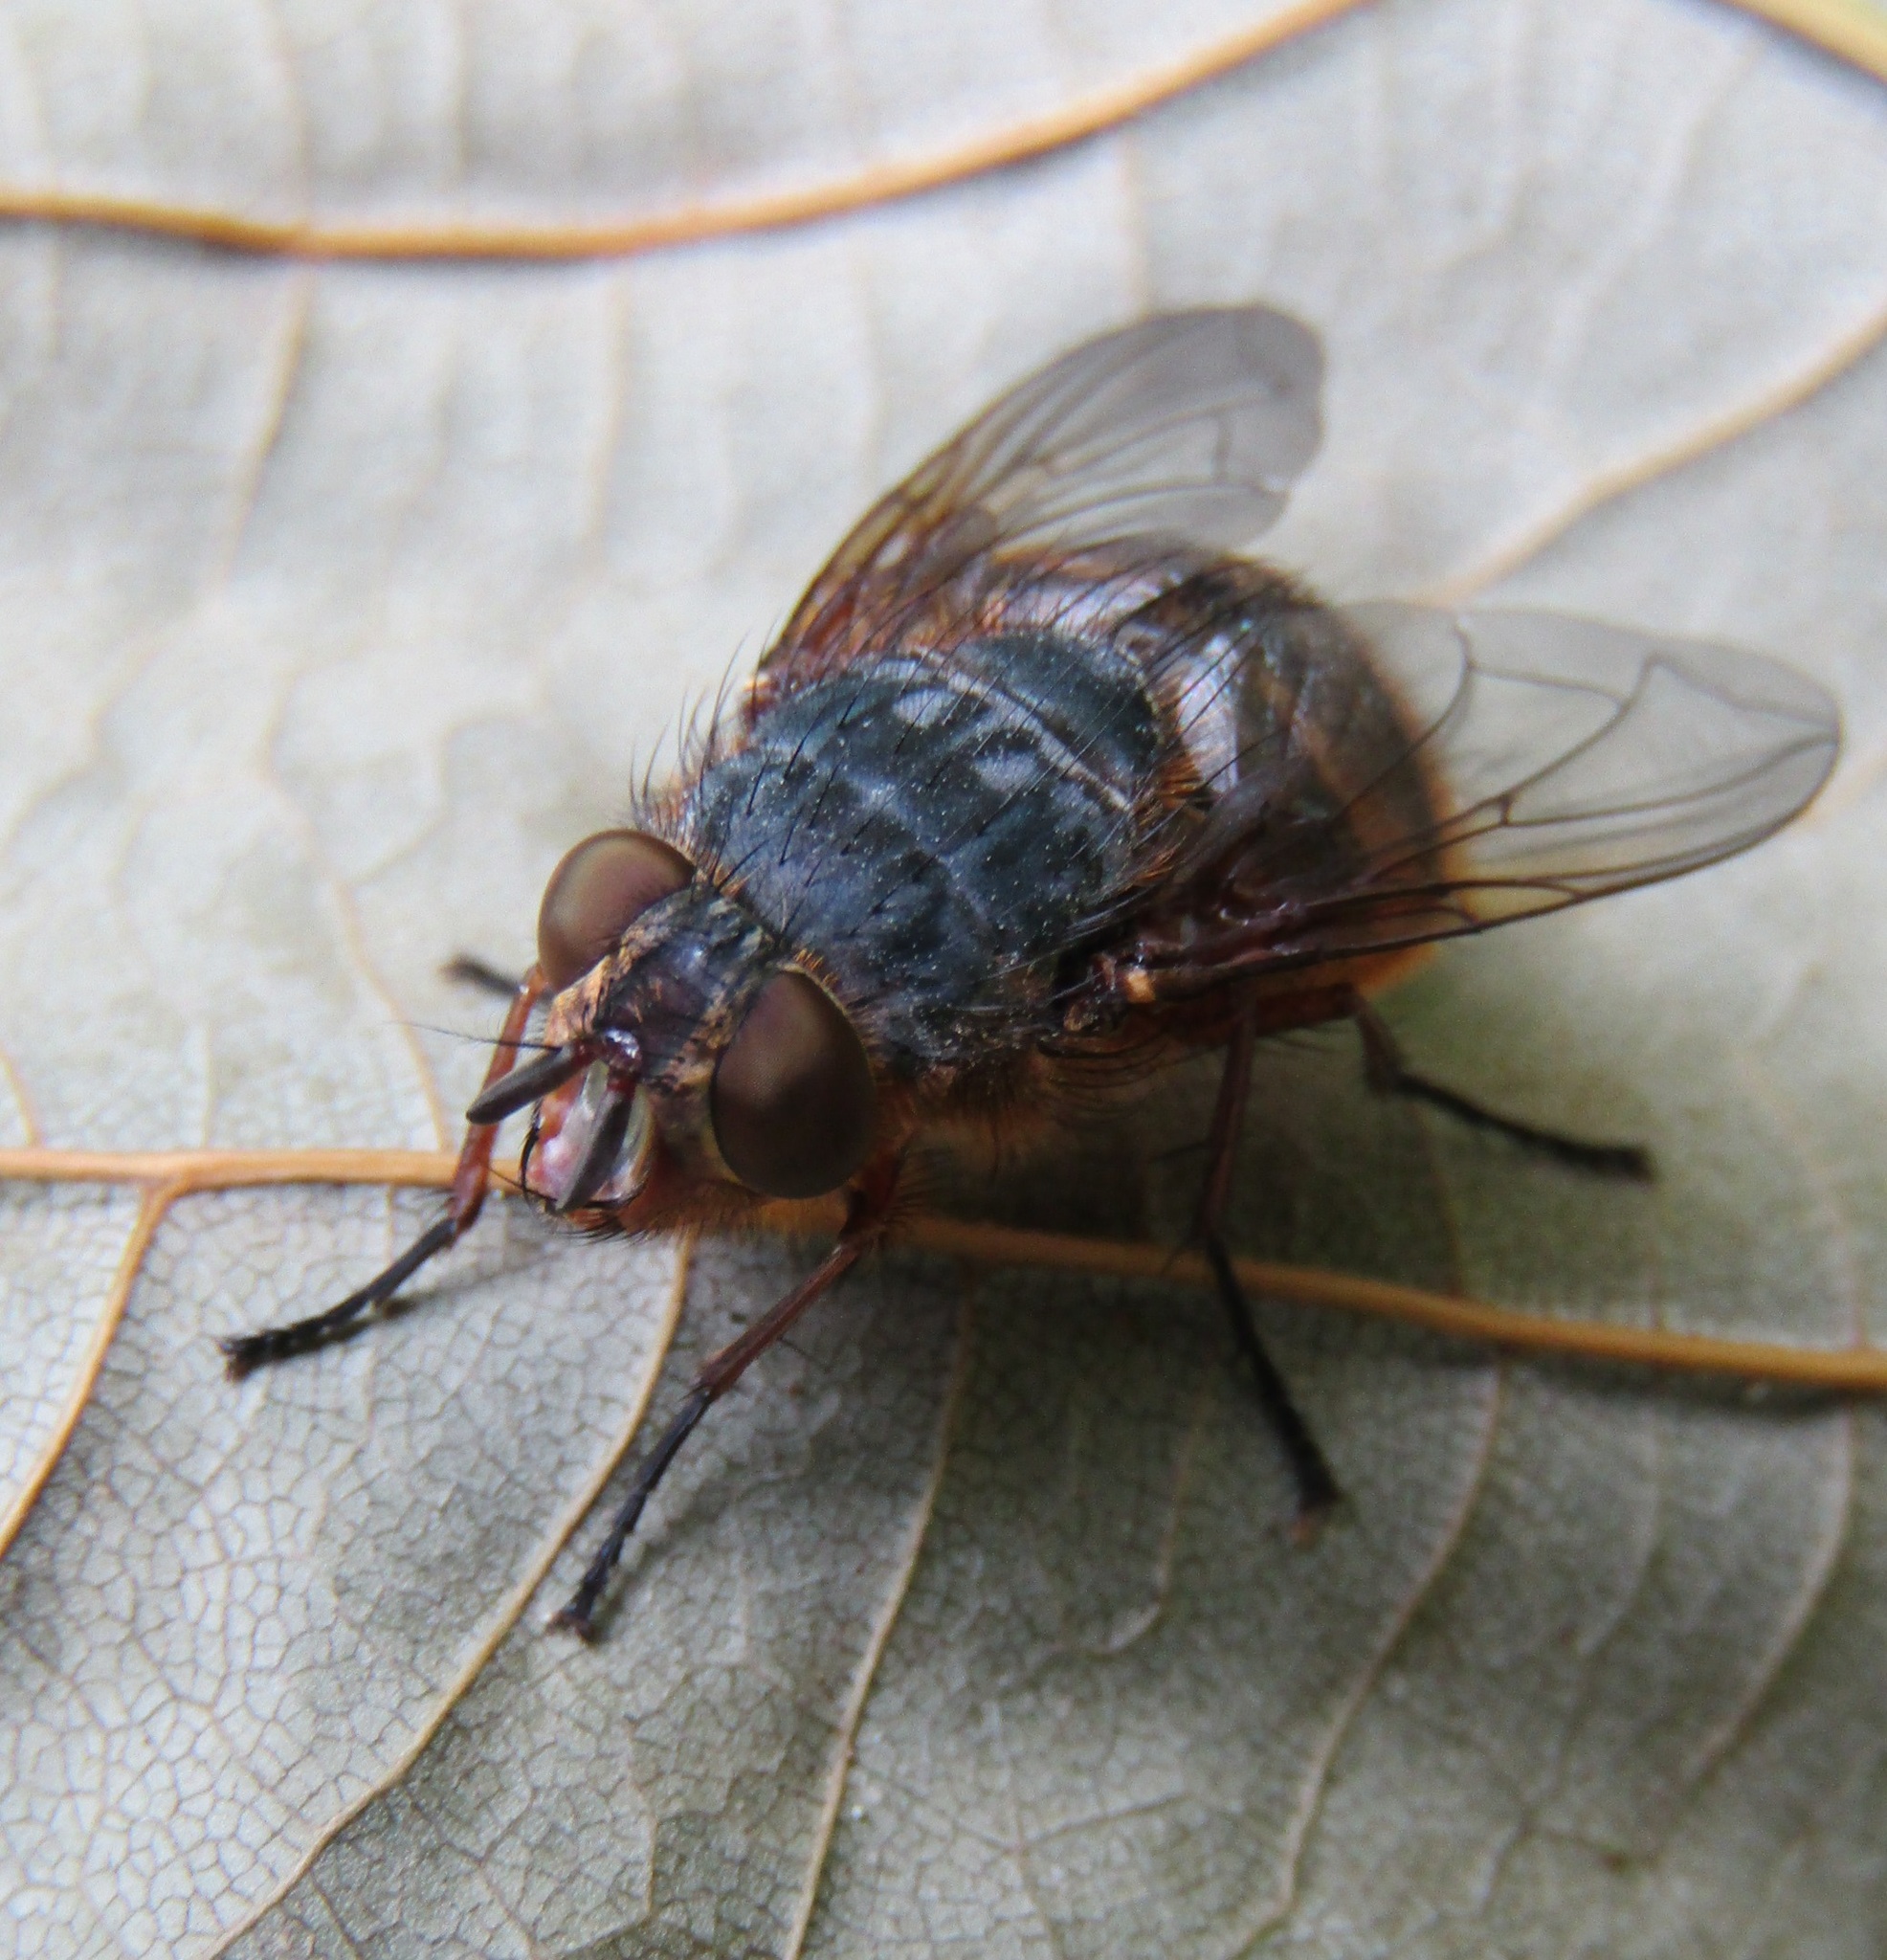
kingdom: Animalia
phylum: Arthropoda
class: Insecta
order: Diptera
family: Calliphoridae
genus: Calliphora
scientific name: Calliphora hilli
